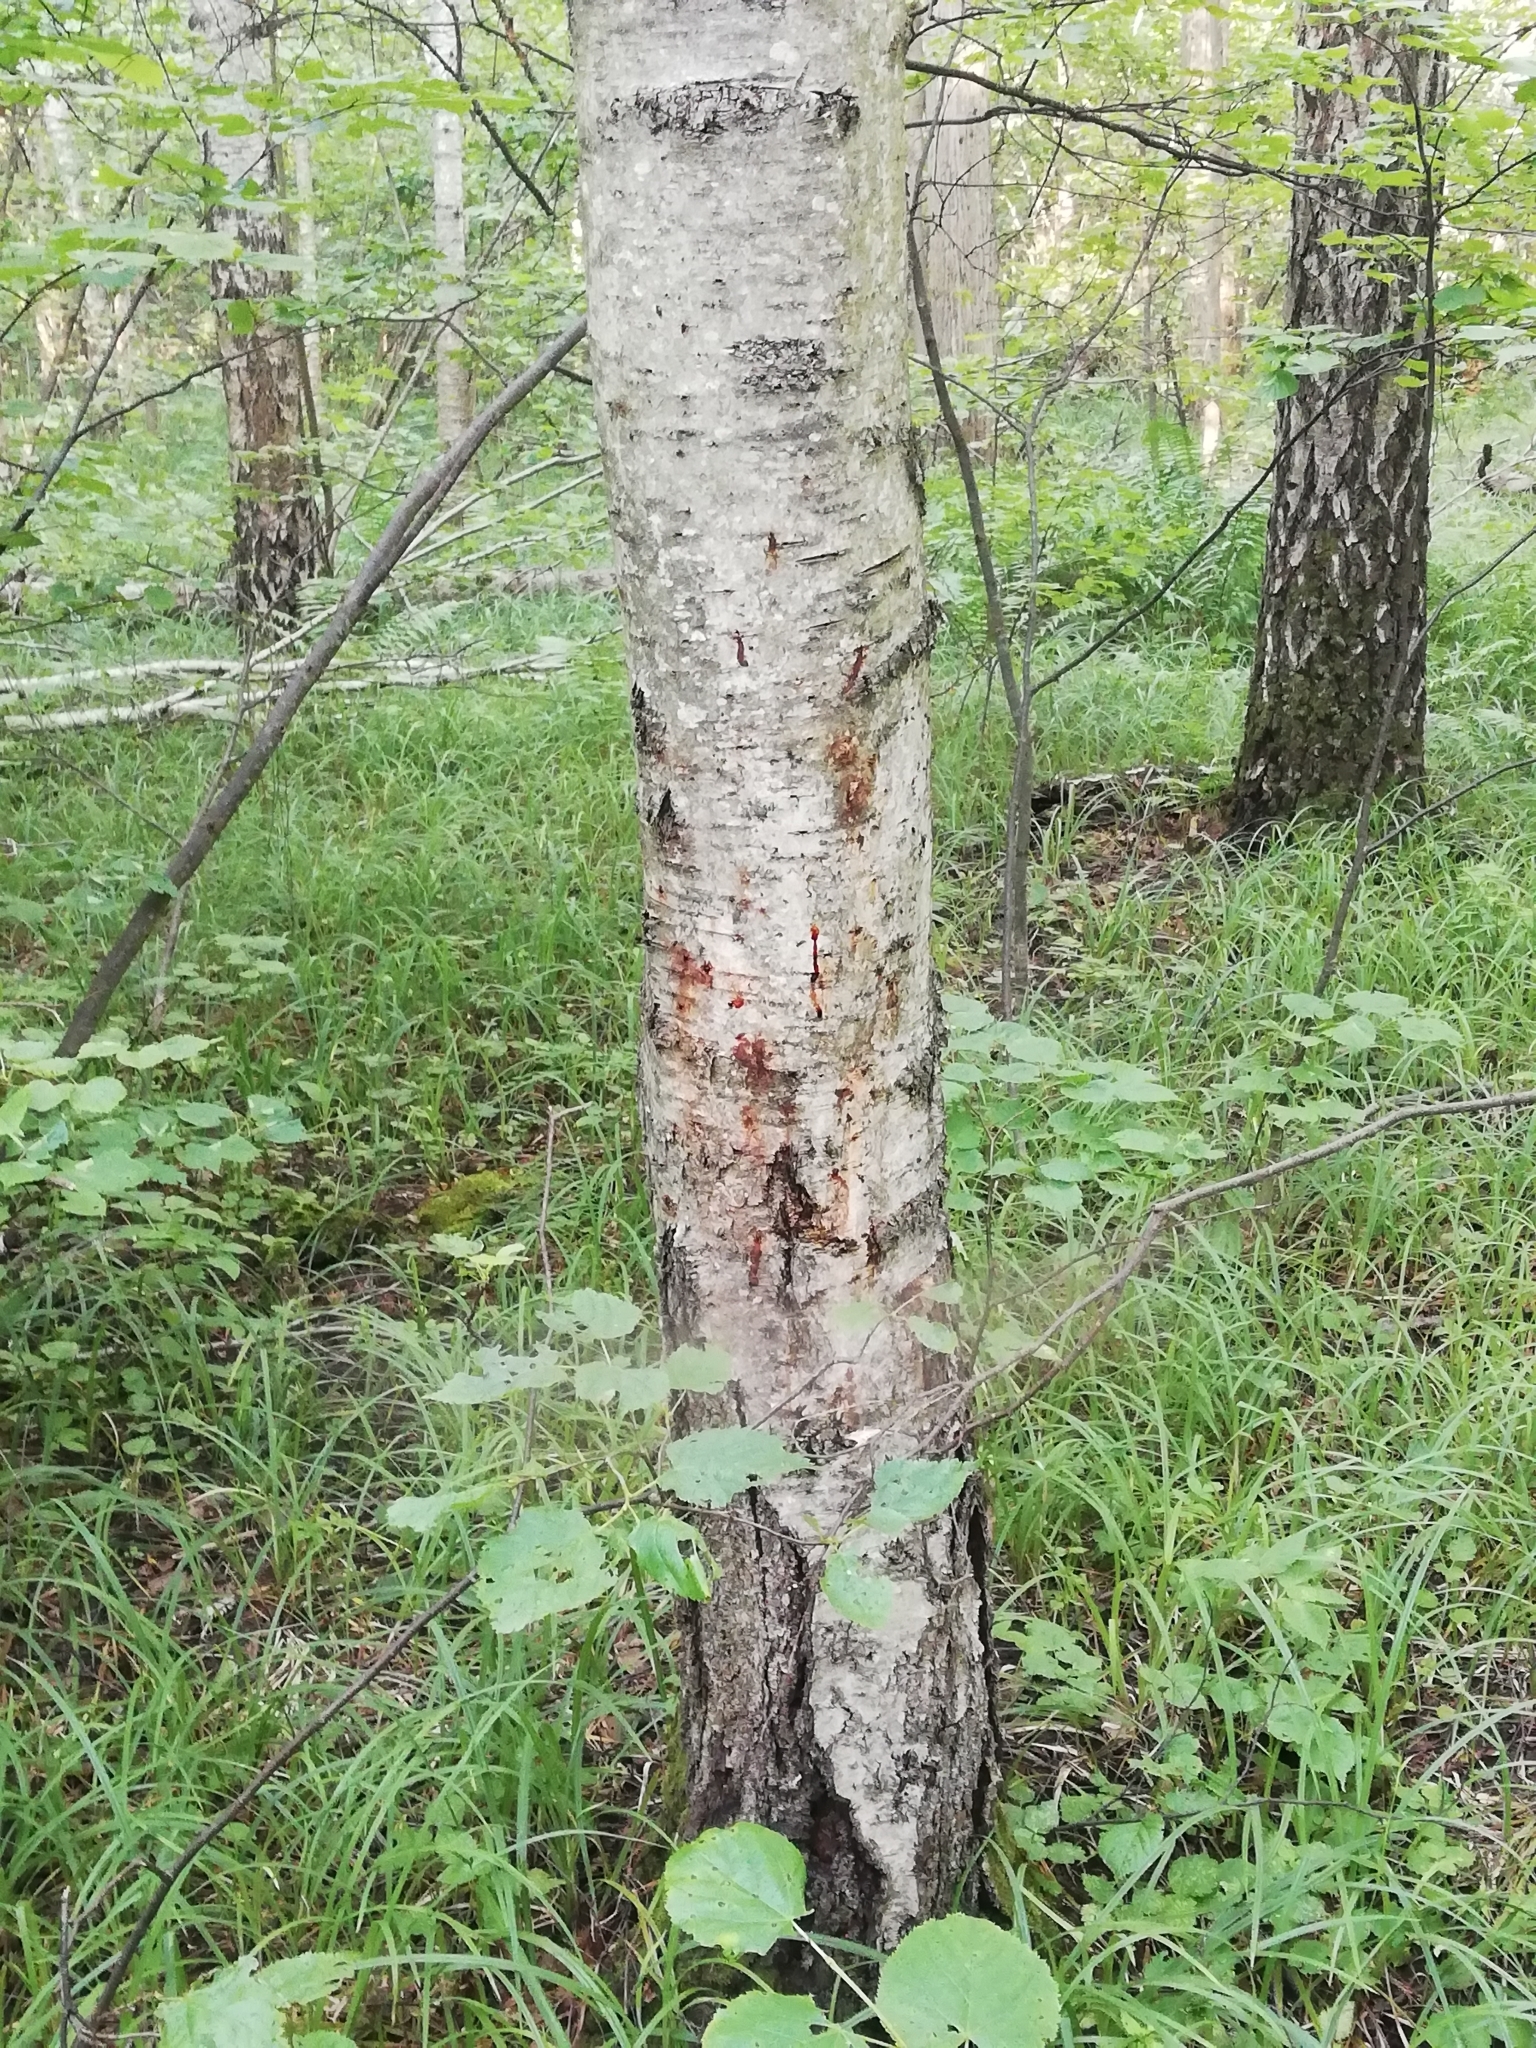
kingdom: Plantae
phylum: Tracheophyta
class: Magnoliopsida
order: Fagales
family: Betulaceae
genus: Betula
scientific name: Betula pubescens
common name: Downy birch
